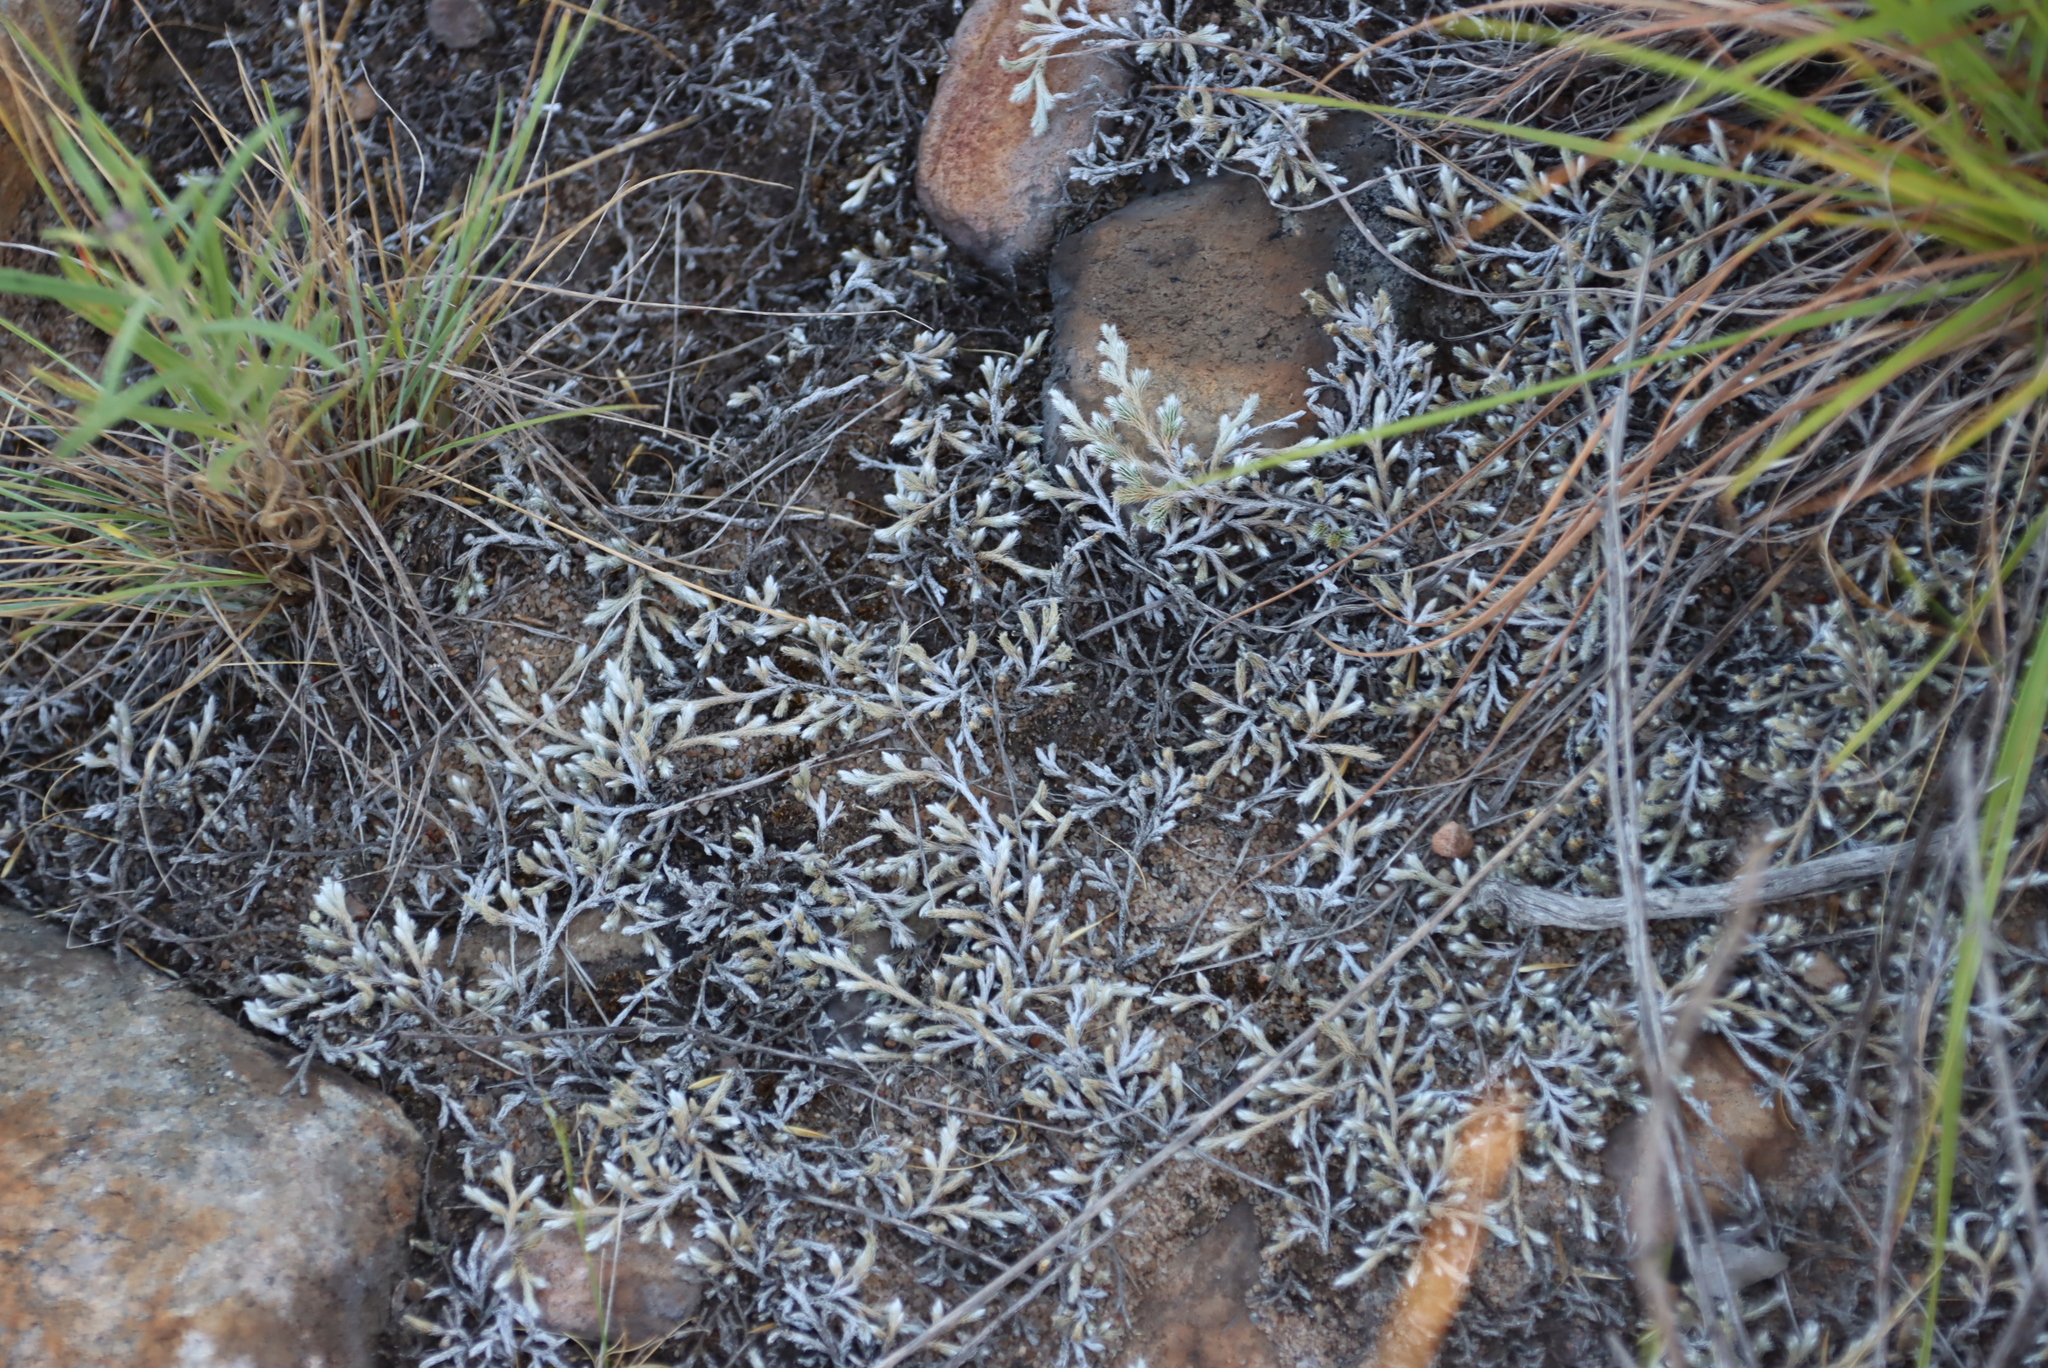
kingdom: Plantae
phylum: Tracheophyta
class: Lycopodiopsida
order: Selaginellales
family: Selaginellaceae
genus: Selaginella
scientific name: Selaginella dregei
